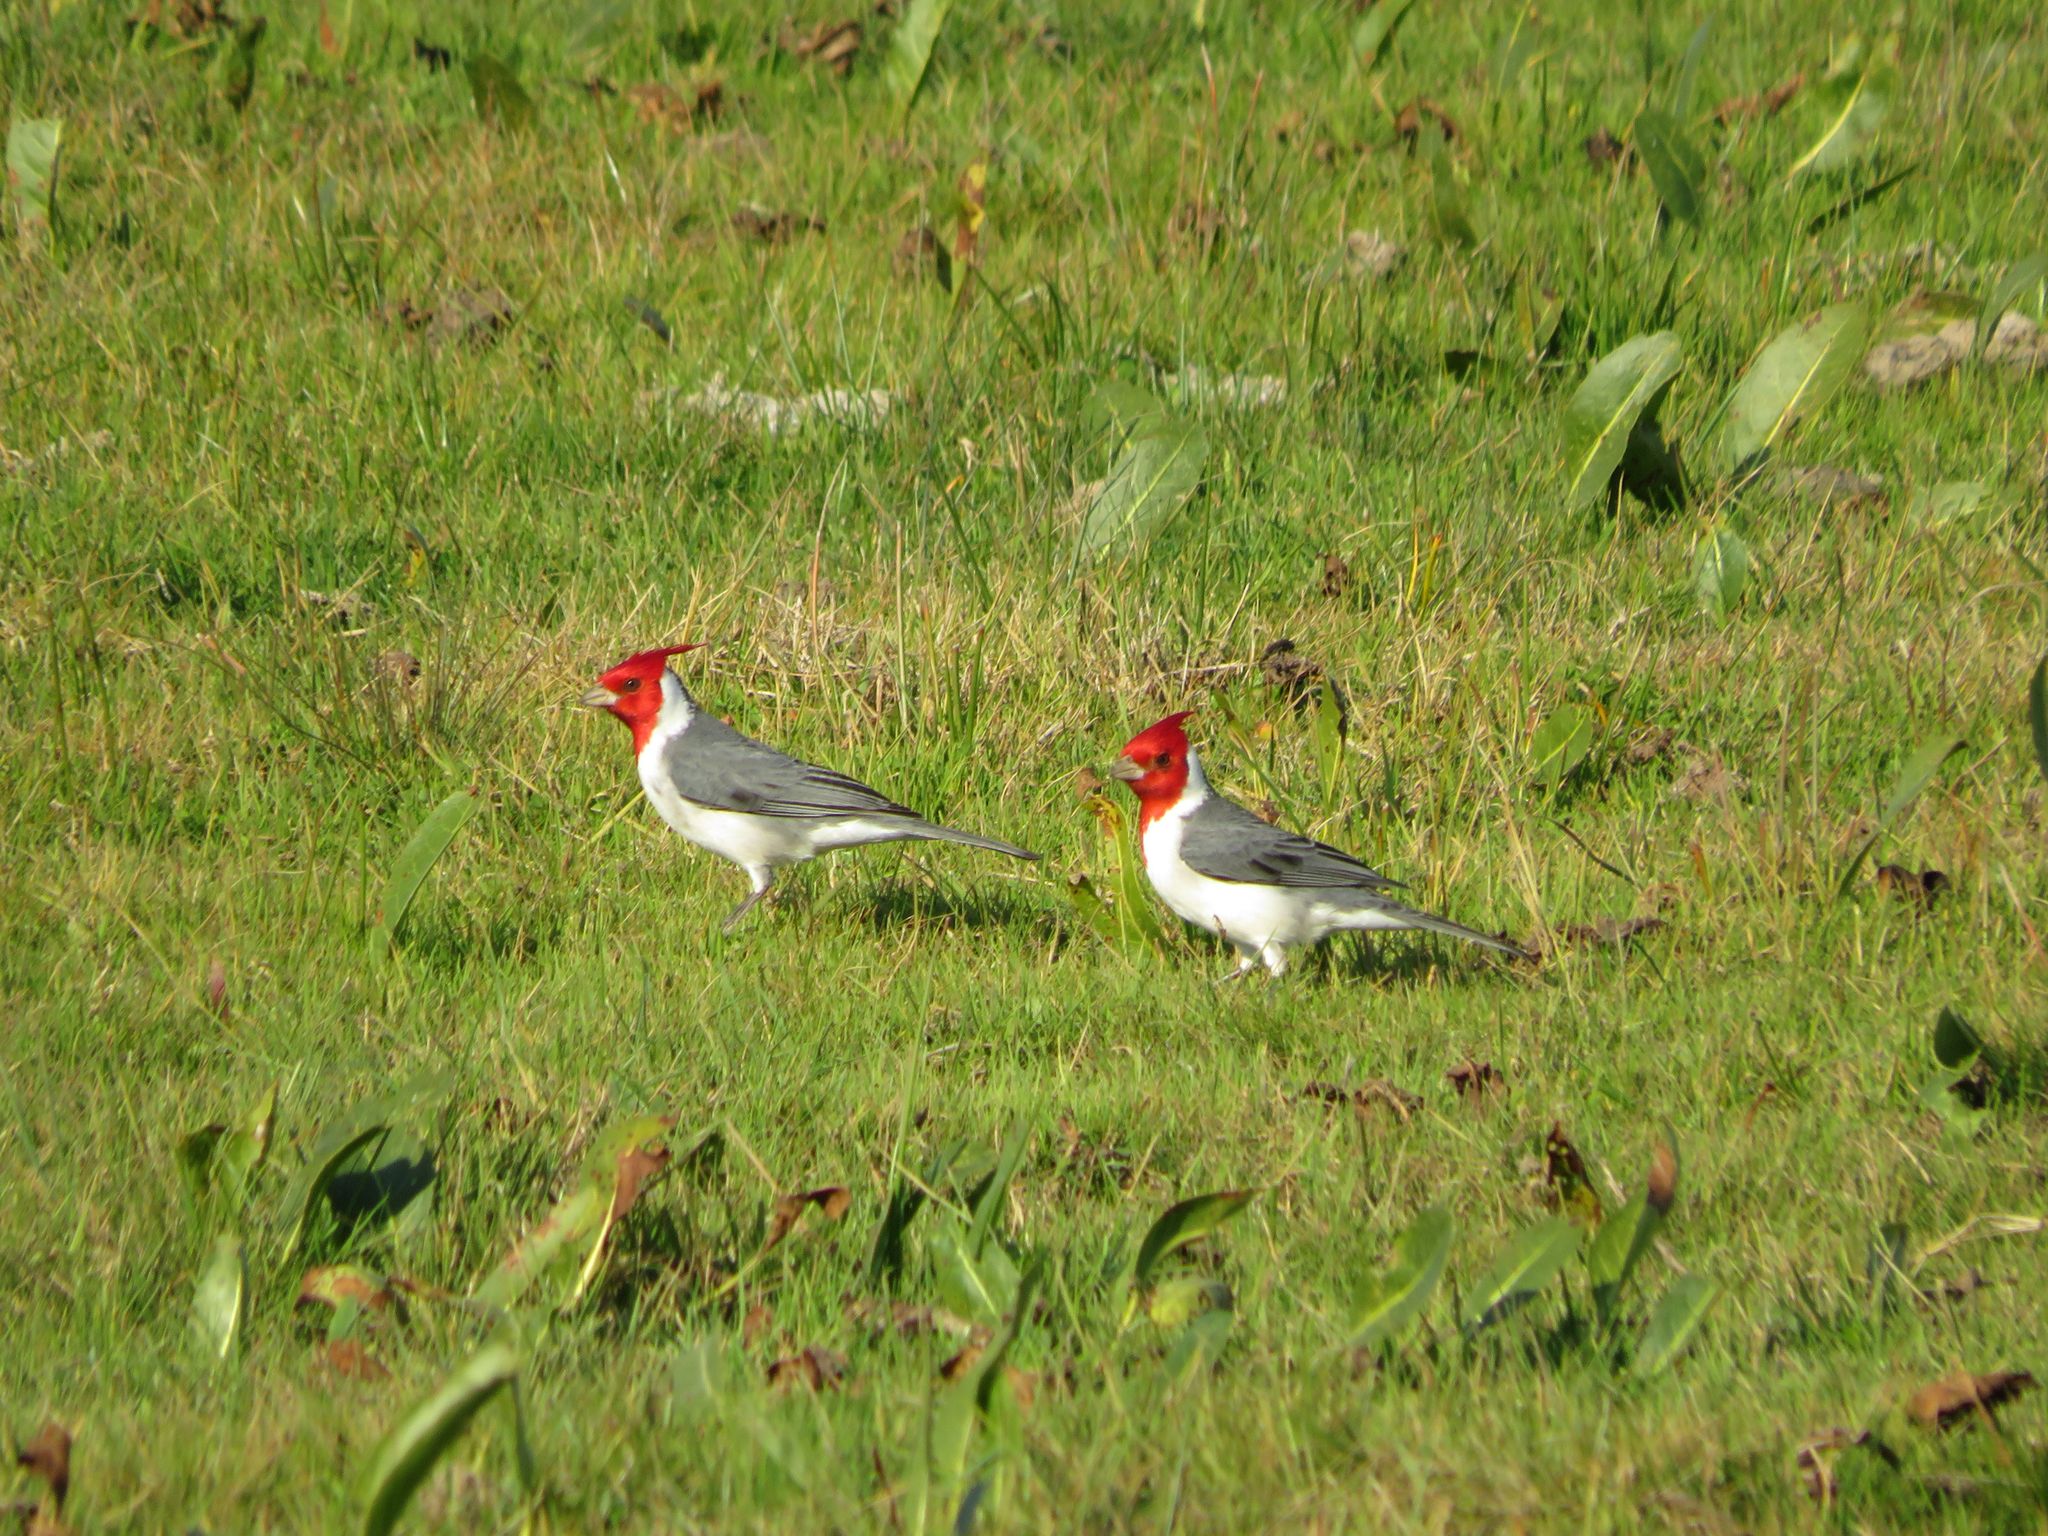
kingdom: Animalia
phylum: Chordata
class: Aves
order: Passeriformes
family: Thraupidae
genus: Paroaria
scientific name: Paroaria coronata
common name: Red-crested cardinal
